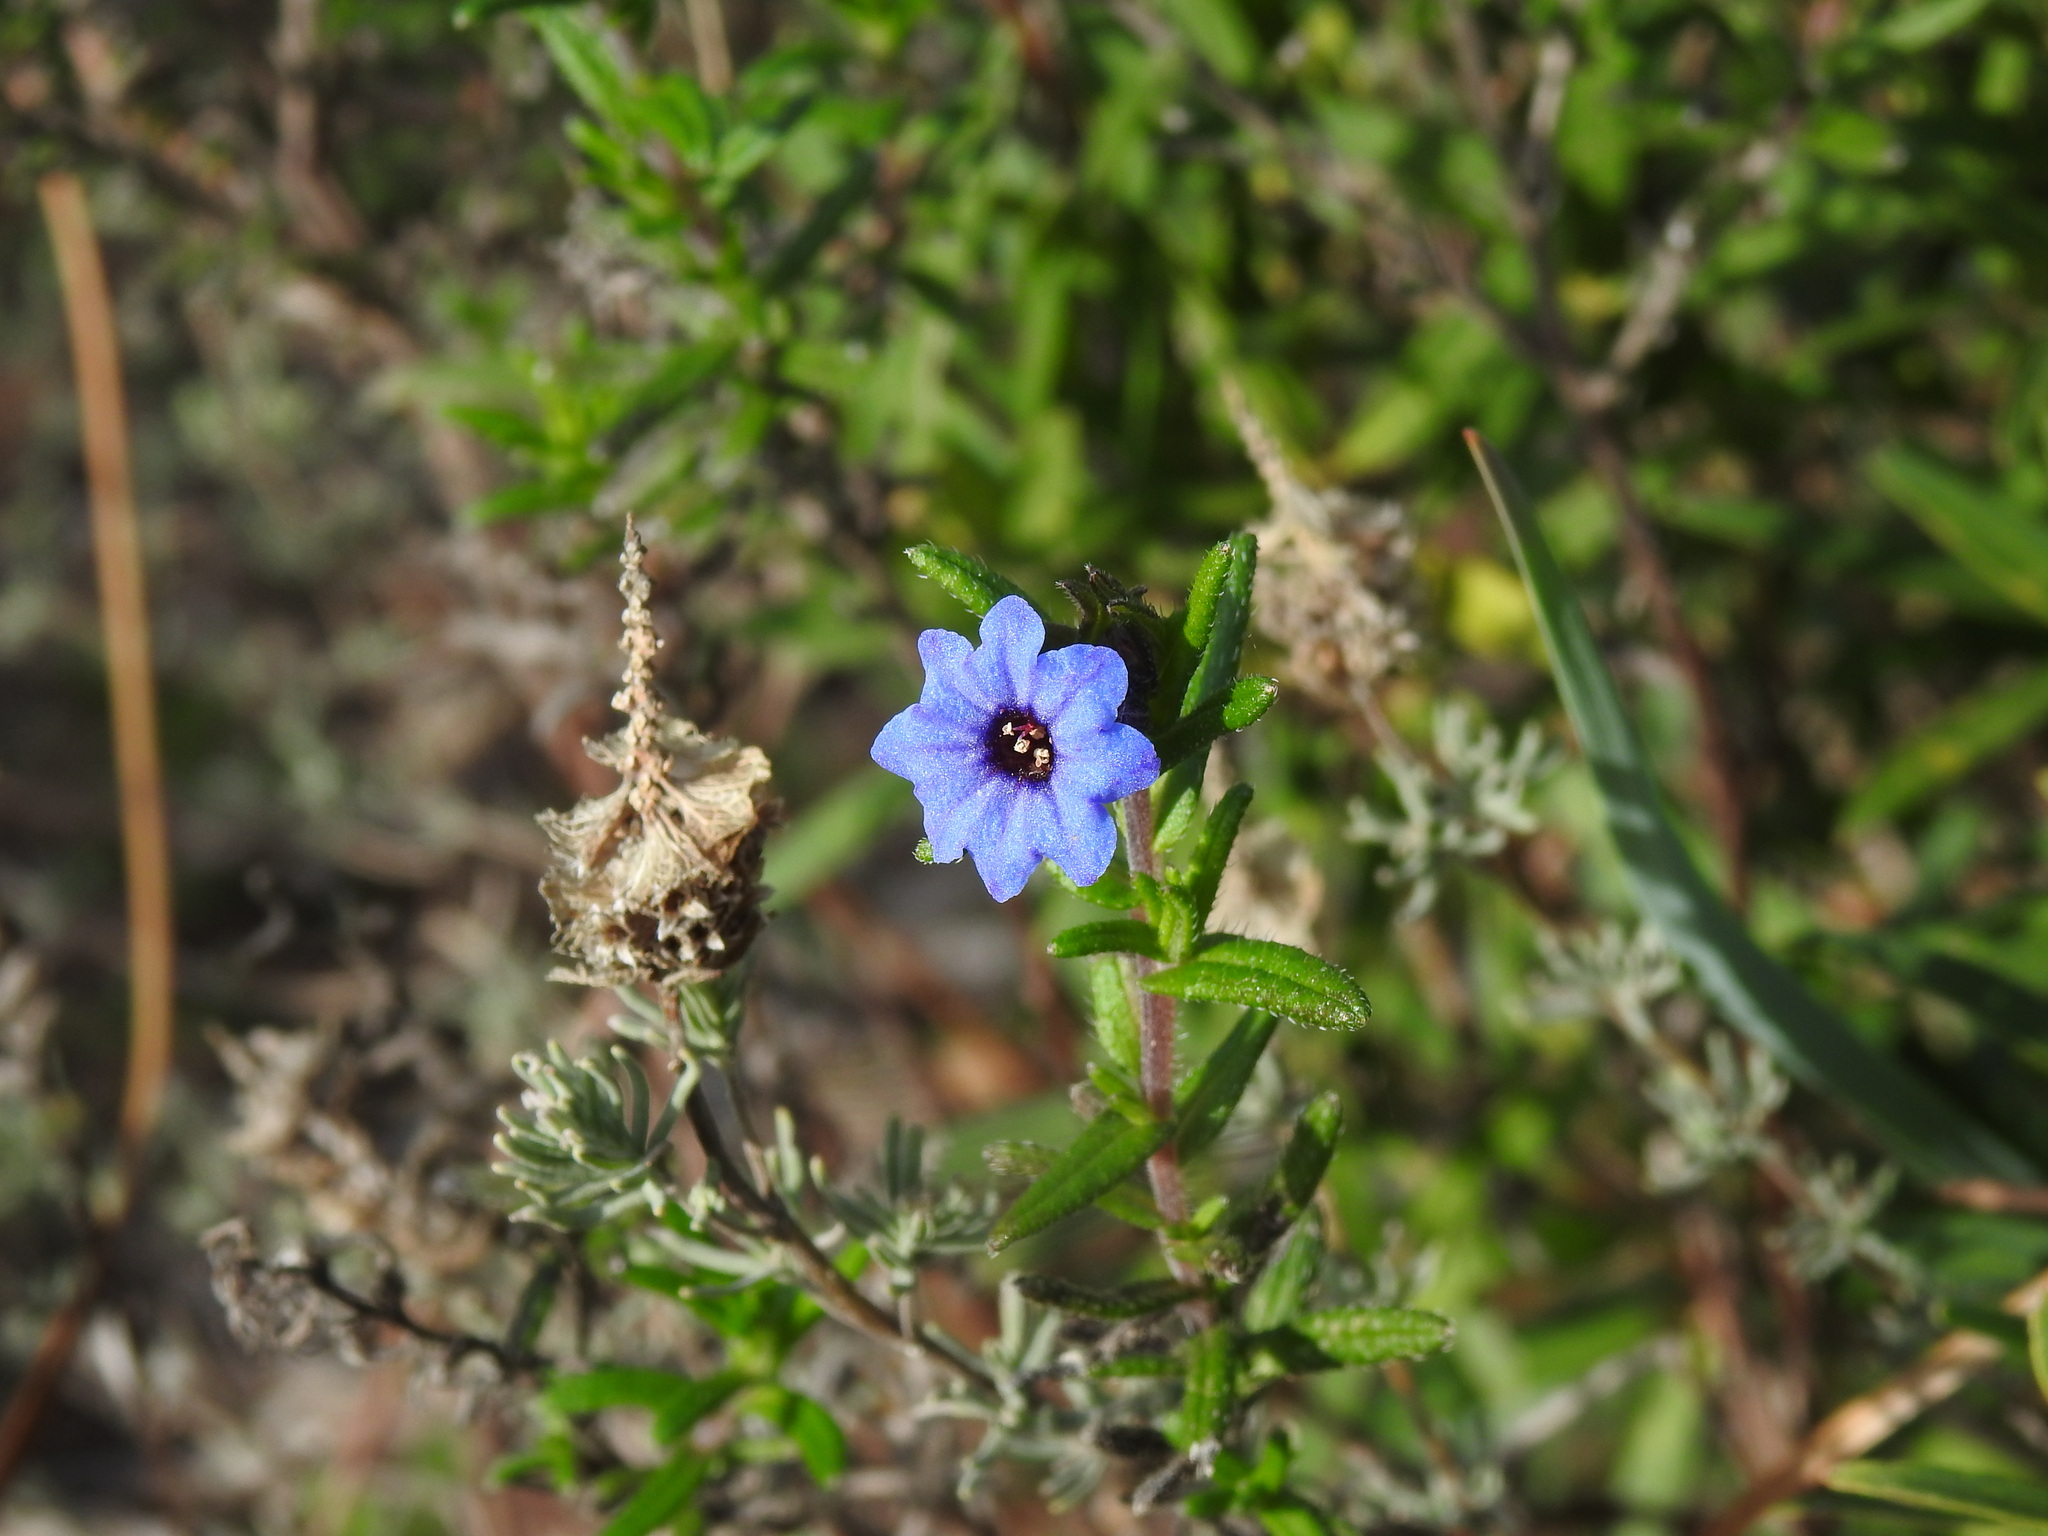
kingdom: Plantae
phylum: Tracheophyta
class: Magnoliopsida
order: Boraginales
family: Boraginaceae
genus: Glandora
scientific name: Glandora prostrata
